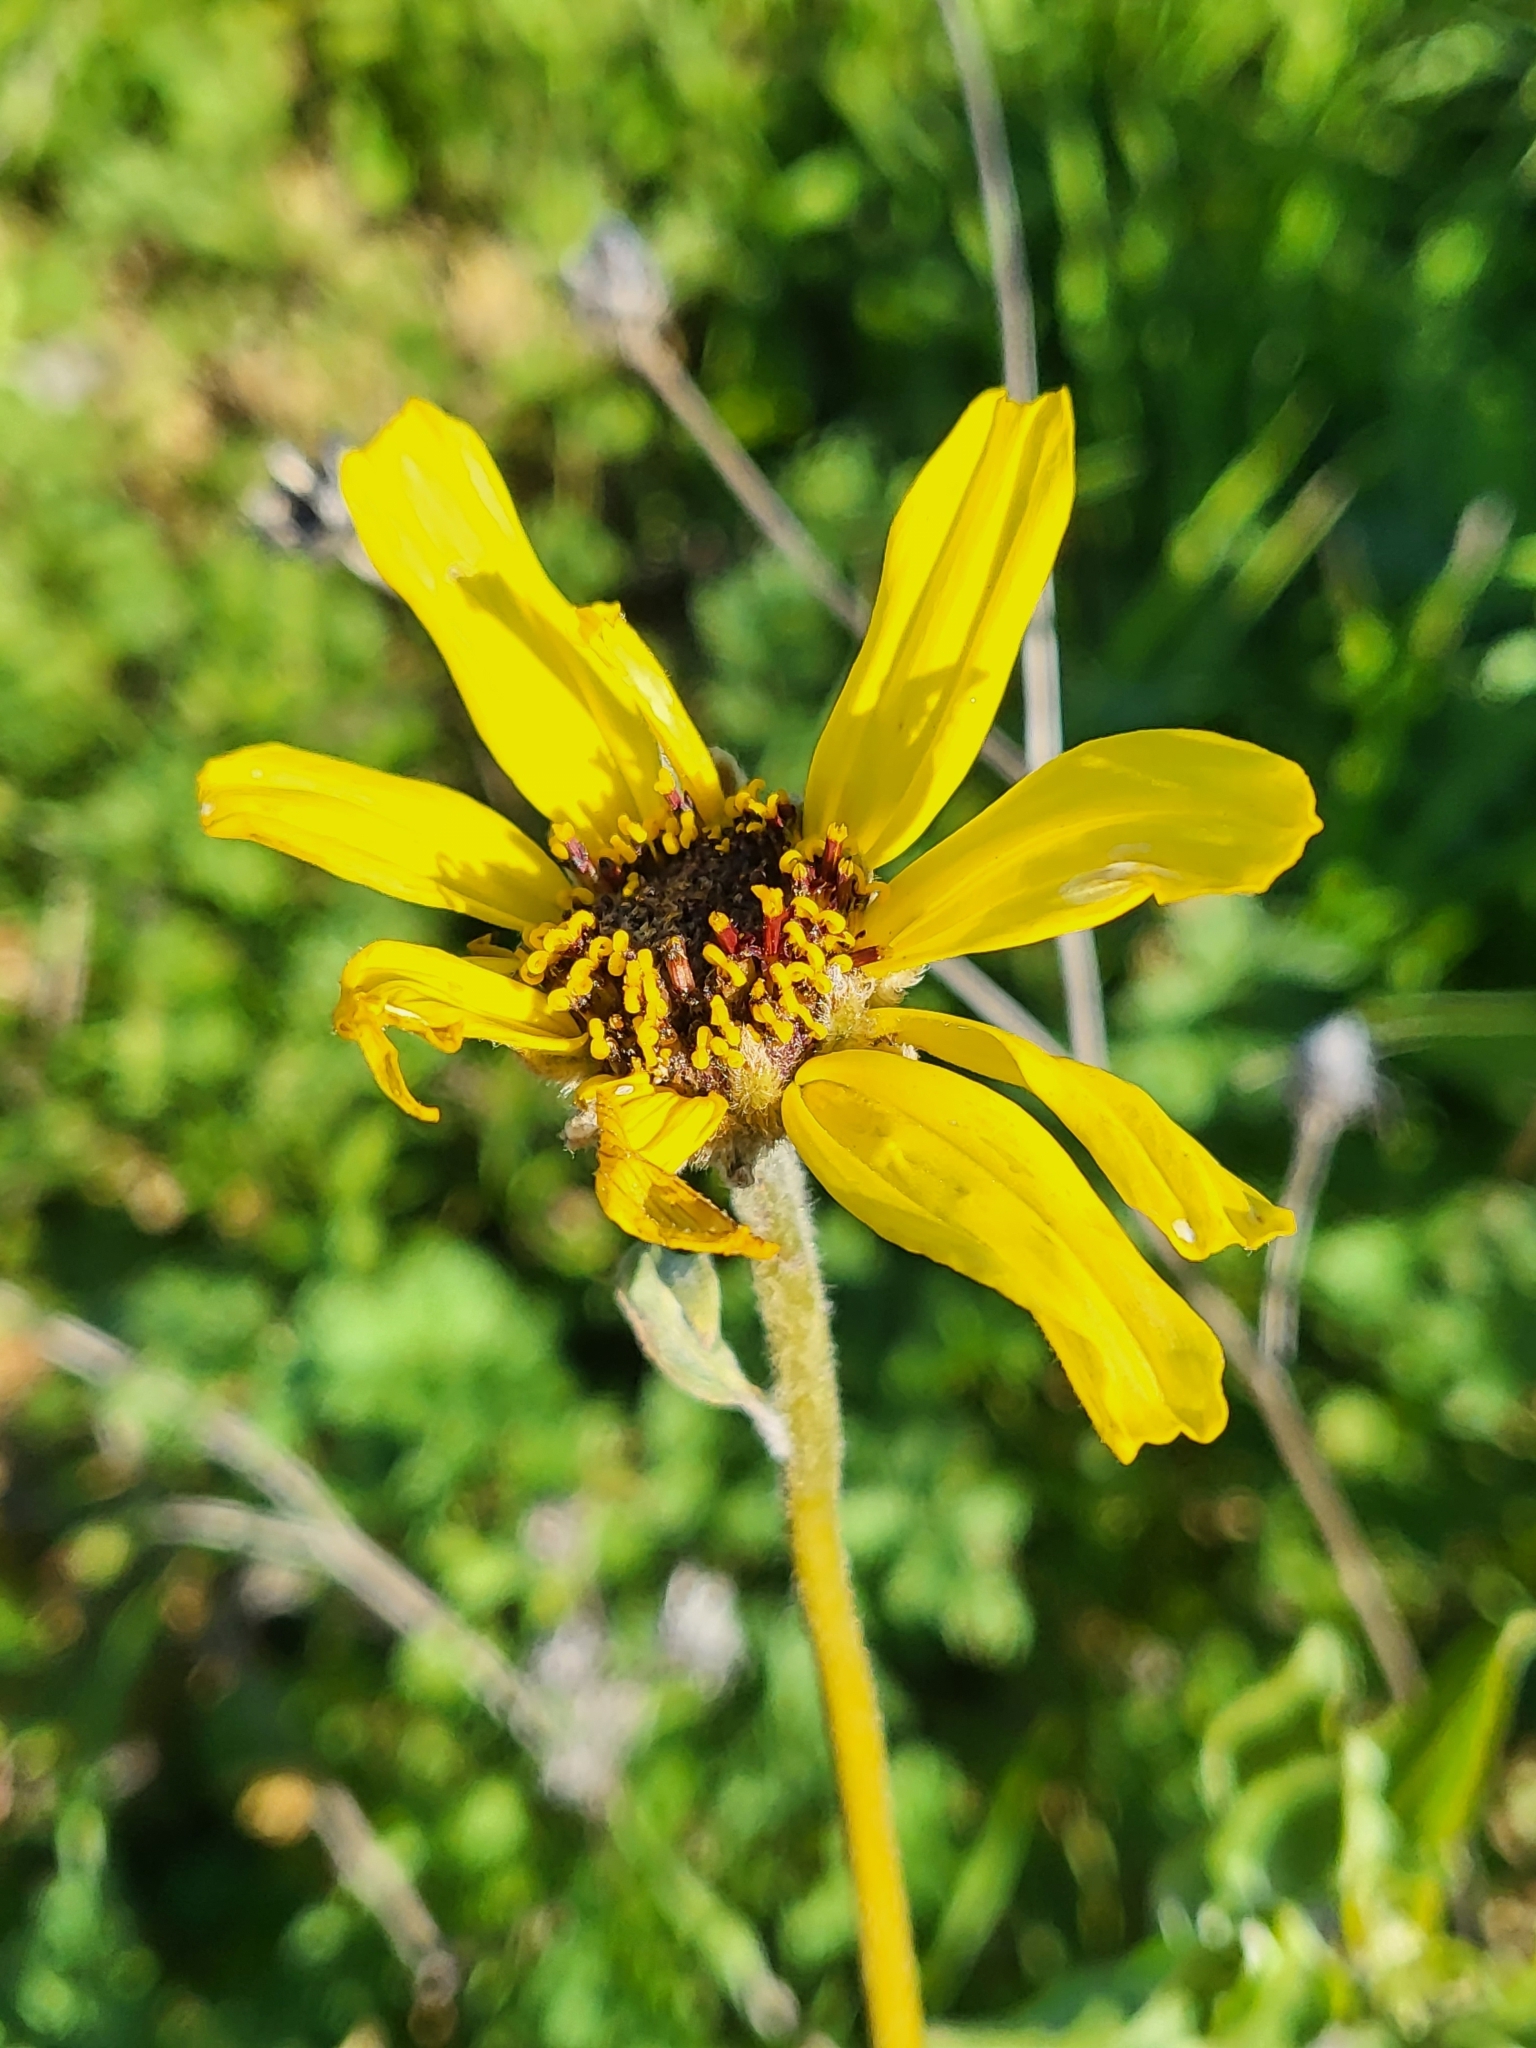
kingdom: Plantae
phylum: Tracheophyta
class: Magnoliopsida
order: Asterales
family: Asteraceae
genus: Encelia
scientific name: Encelia californica
